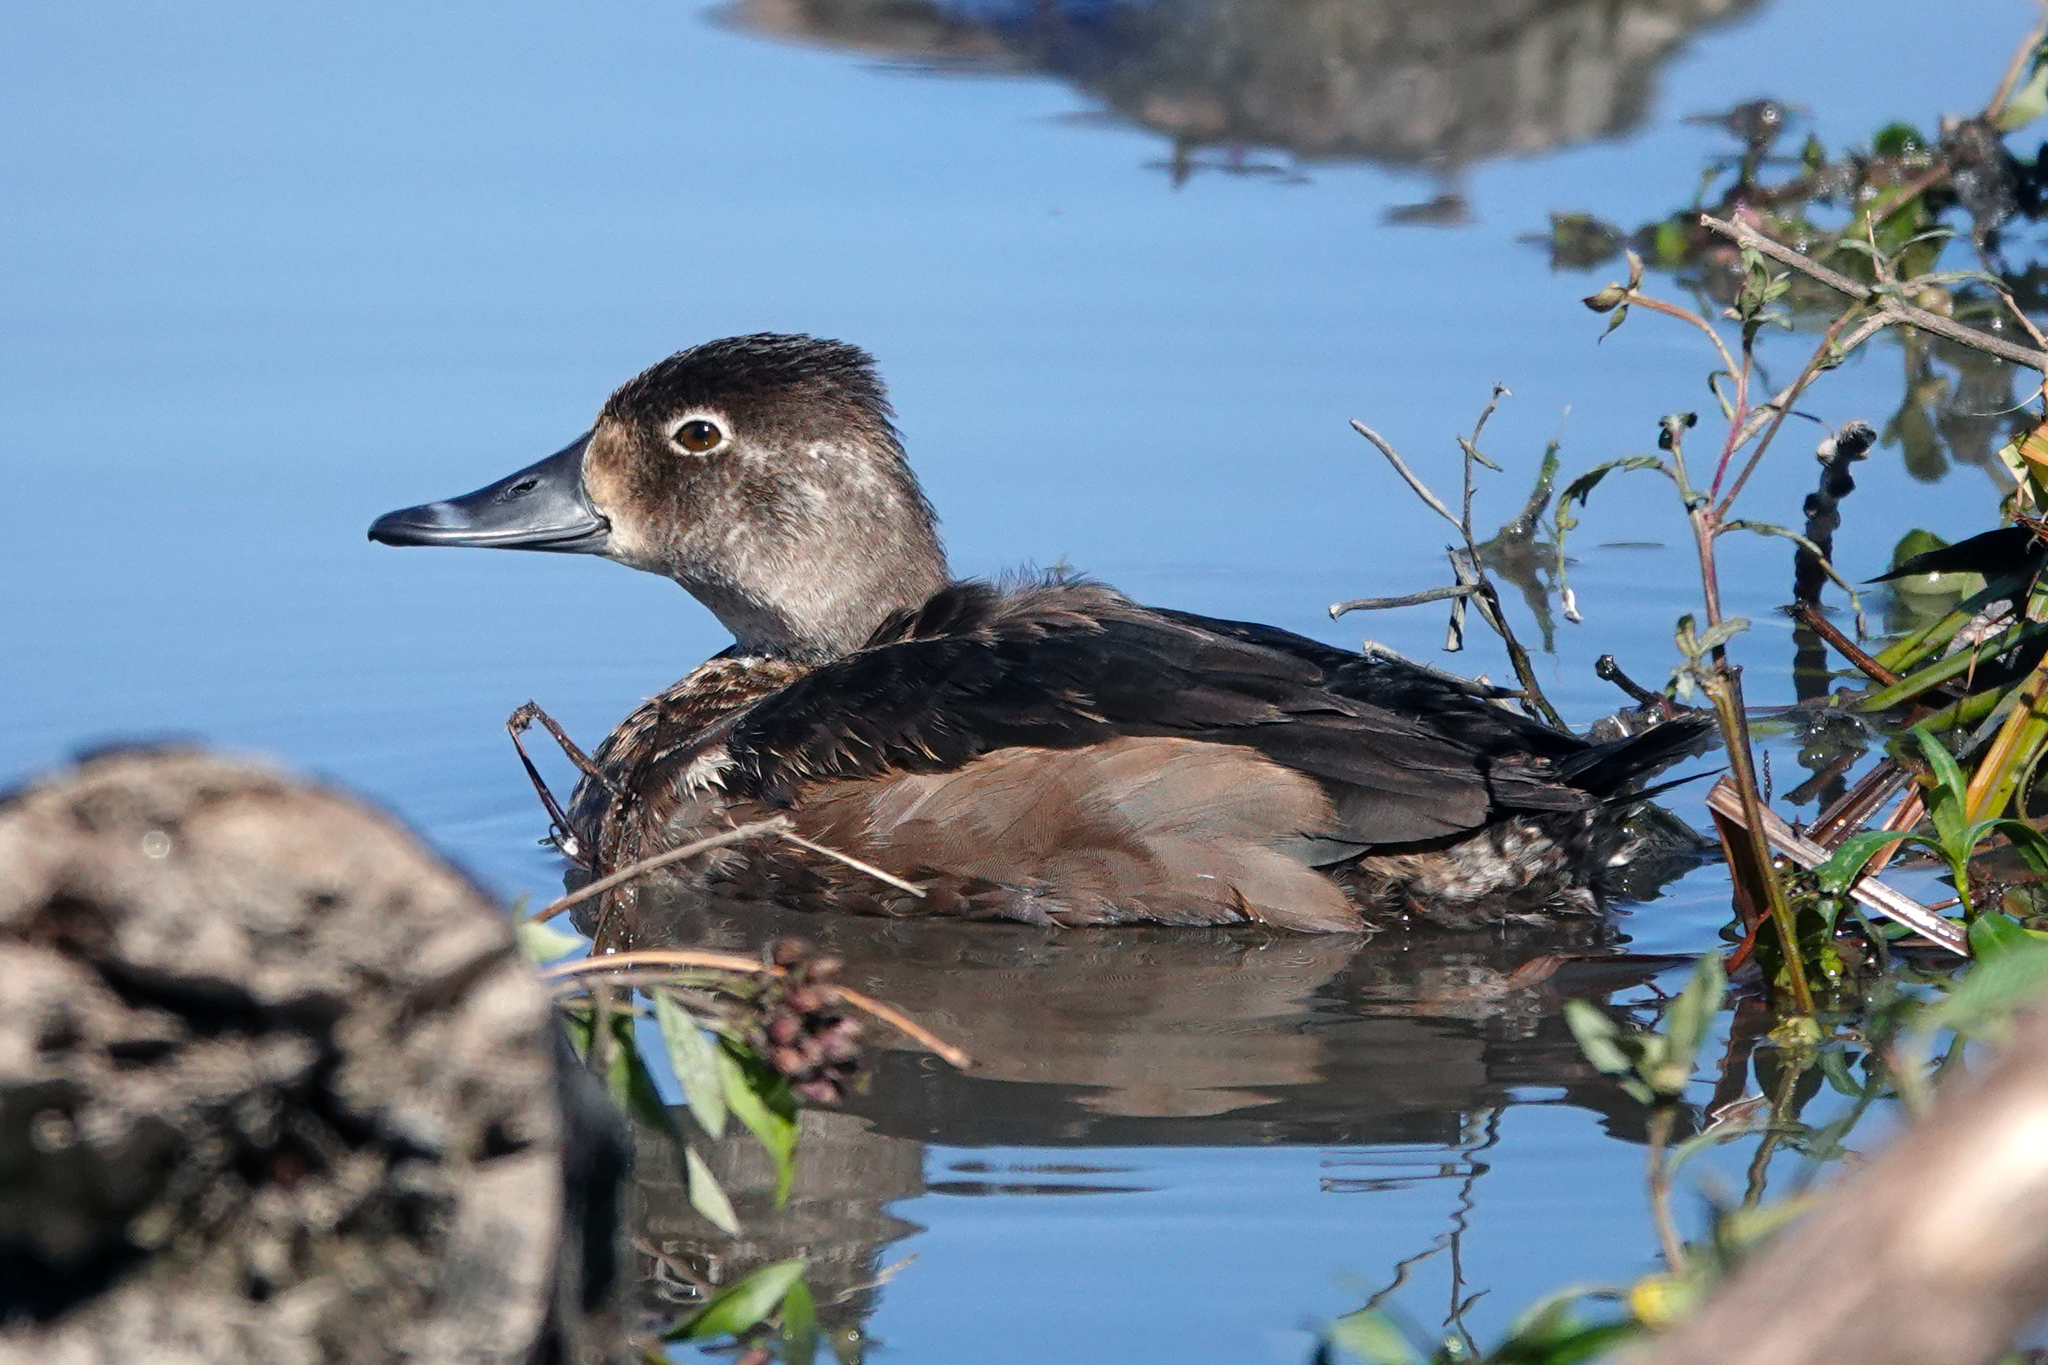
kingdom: Animalia
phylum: Chordata
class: Aves
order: Anseriformes
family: Anatidae
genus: Aythya
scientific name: Aythya collaris
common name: Ring-necked duck
